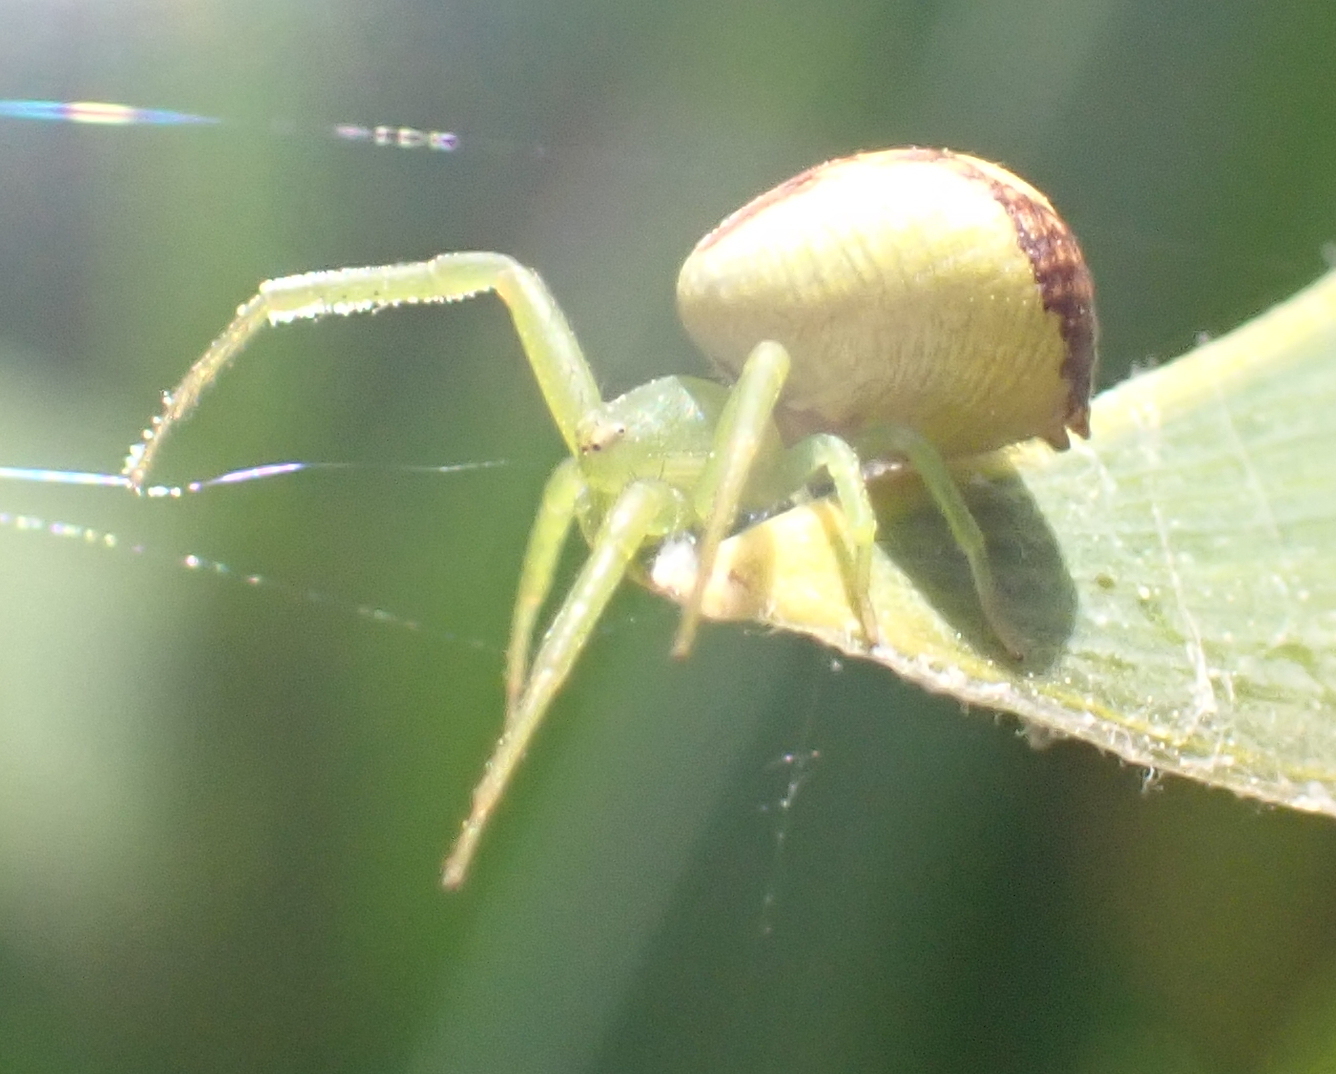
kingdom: Animalia
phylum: Arthropoda
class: Arachnida
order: Araneae
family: Thomisidae
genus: Ebrechtella
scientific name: Ebrechtella tricuspidata
